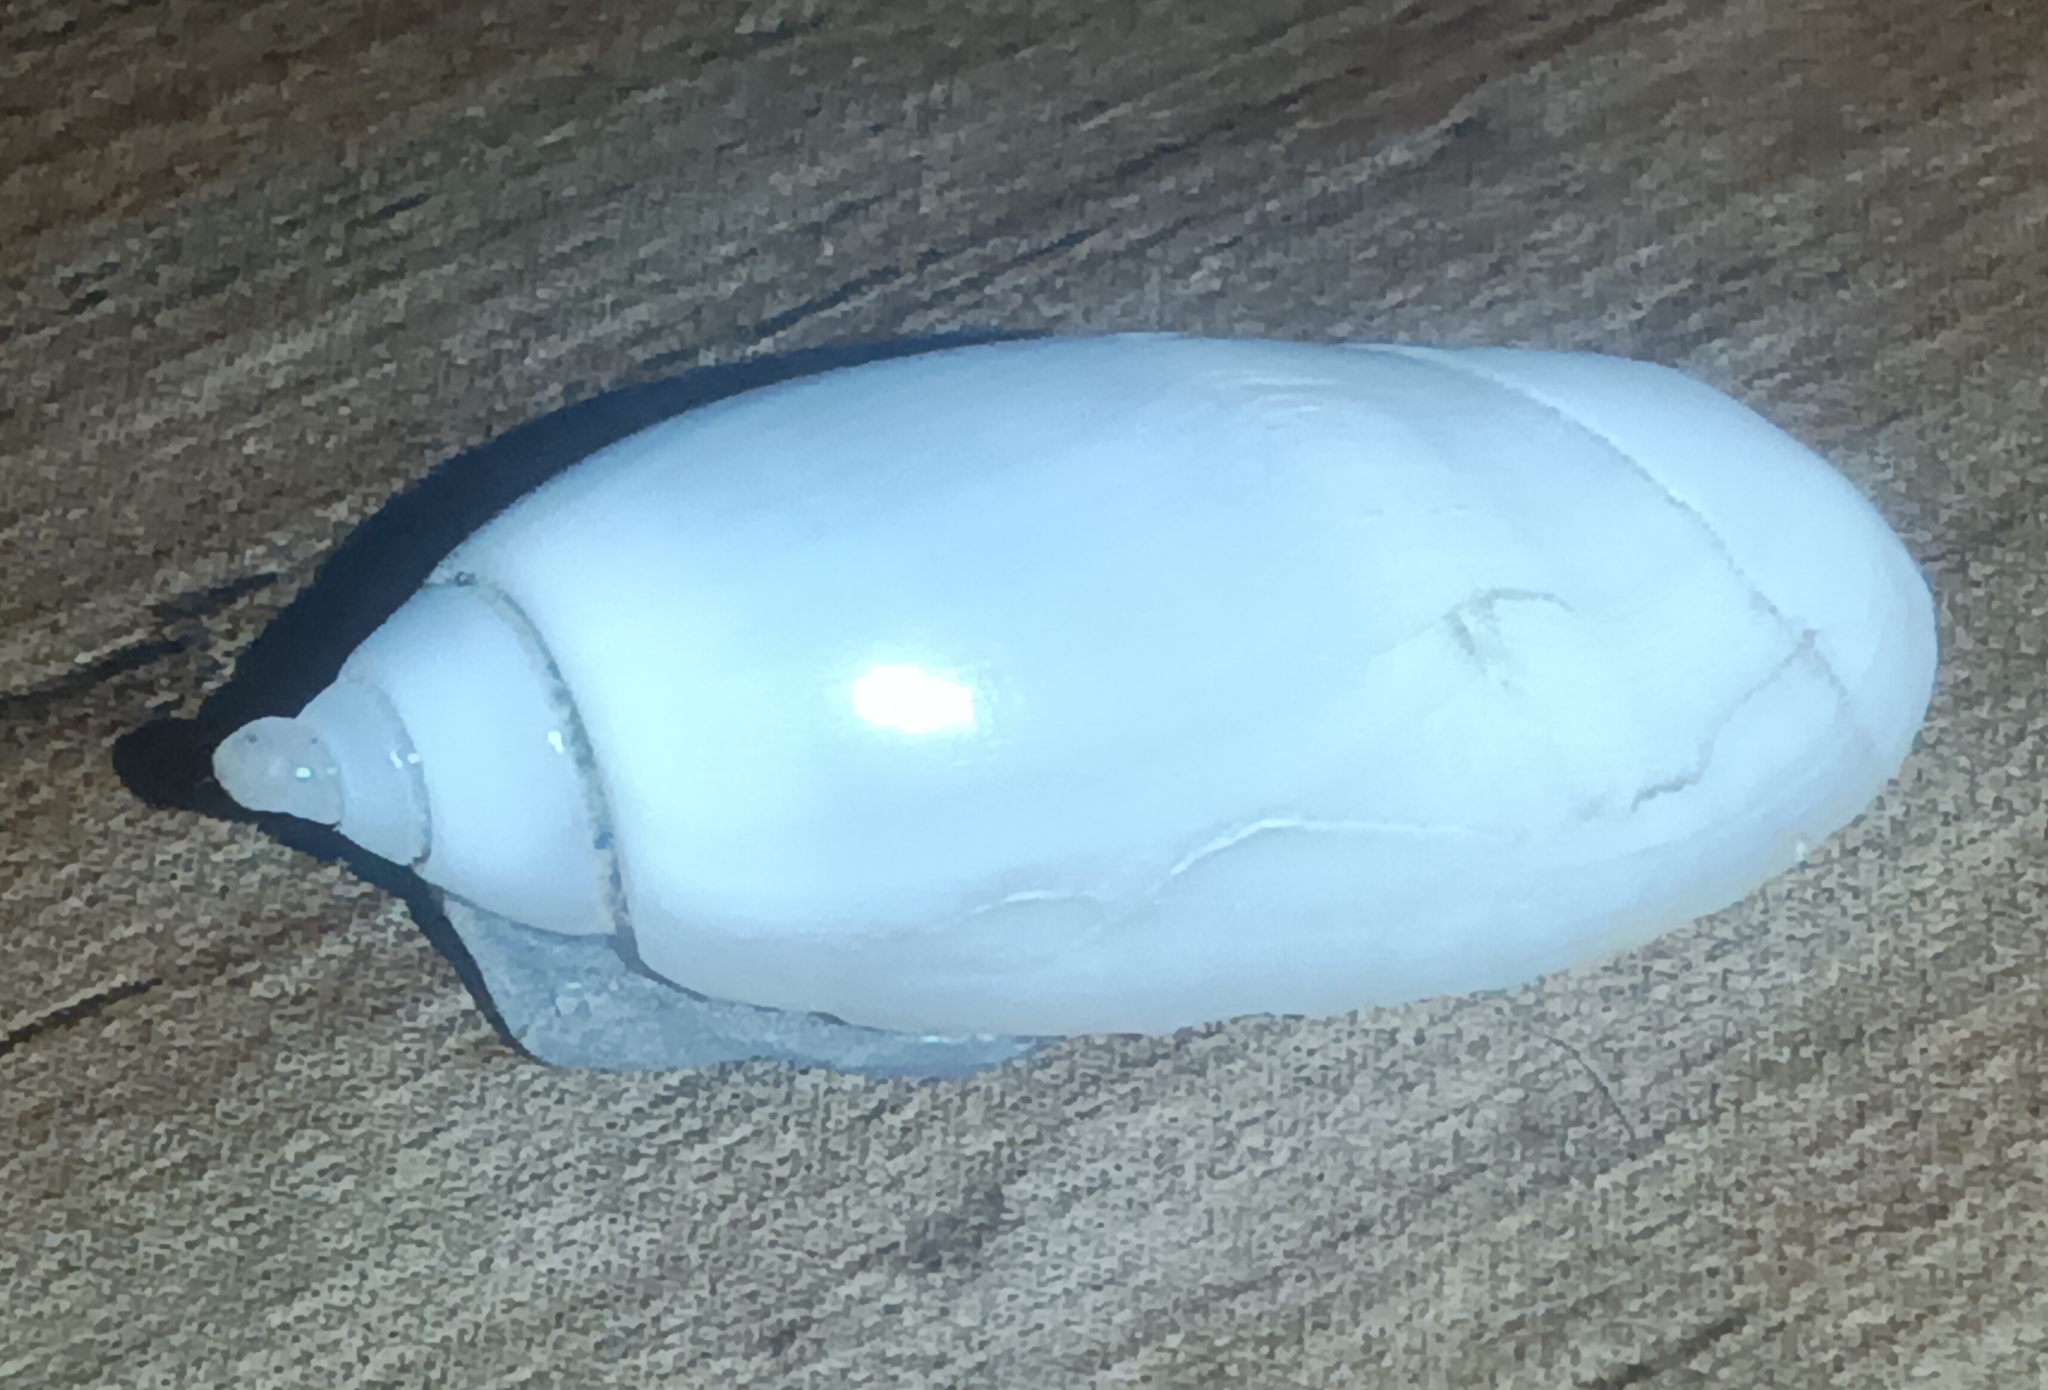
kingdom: Animalia
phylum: Mollusca
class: Gastropoda
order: Neogastropoda
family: Olividae
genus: Oliva
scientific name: Oliva undatella
